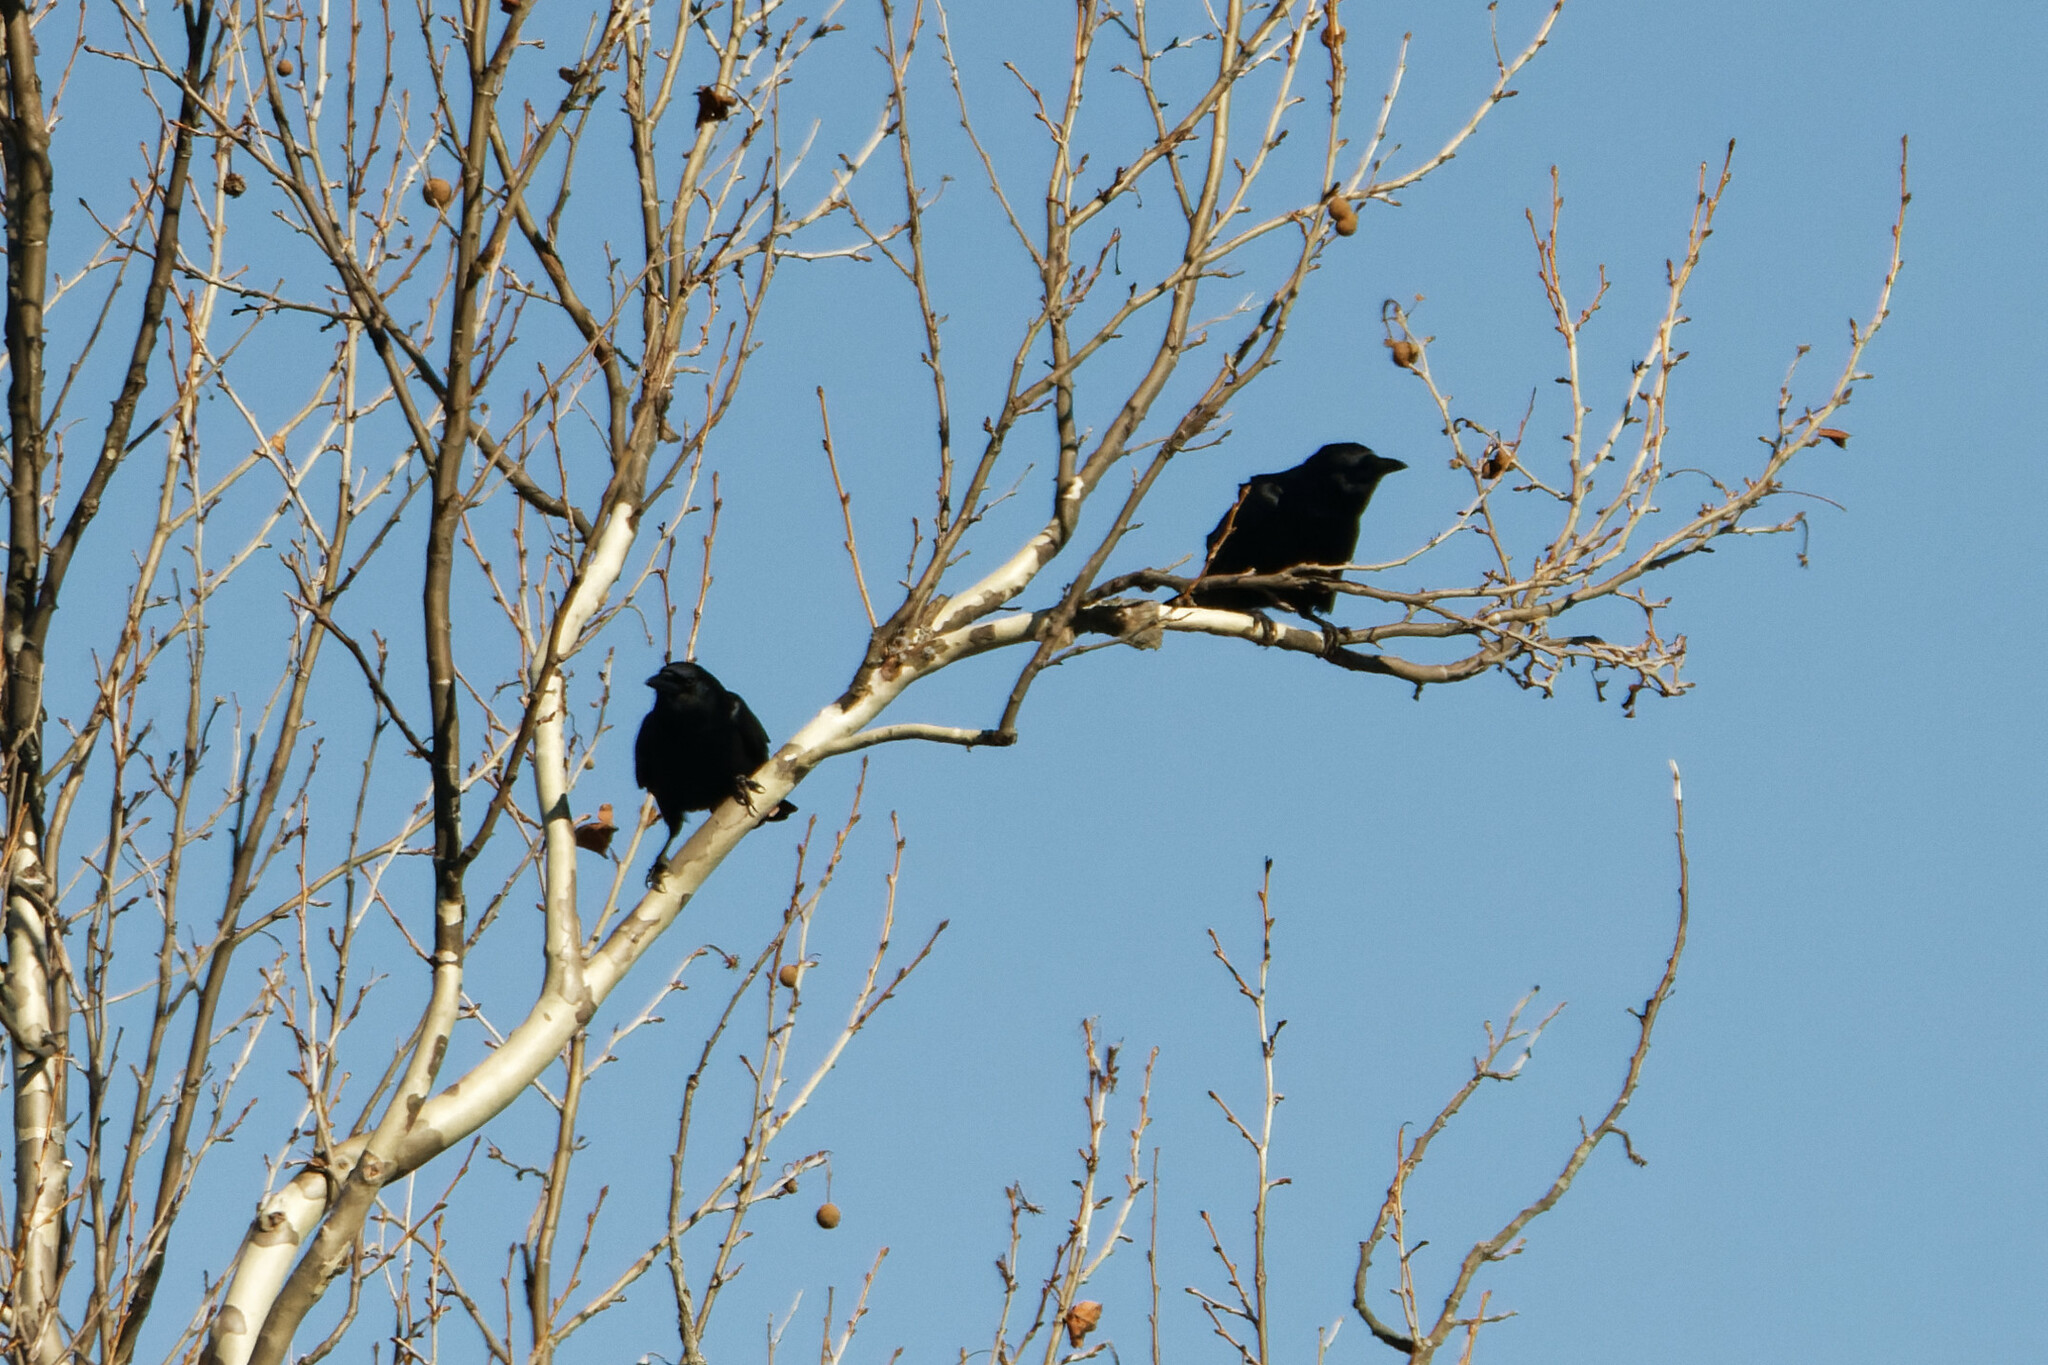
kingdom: Animalia
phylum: Chordata
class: Aves
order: Passeriformes
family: Corvidae
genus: Corvus
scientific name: Corvus brachyrhynchos
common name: American crow
